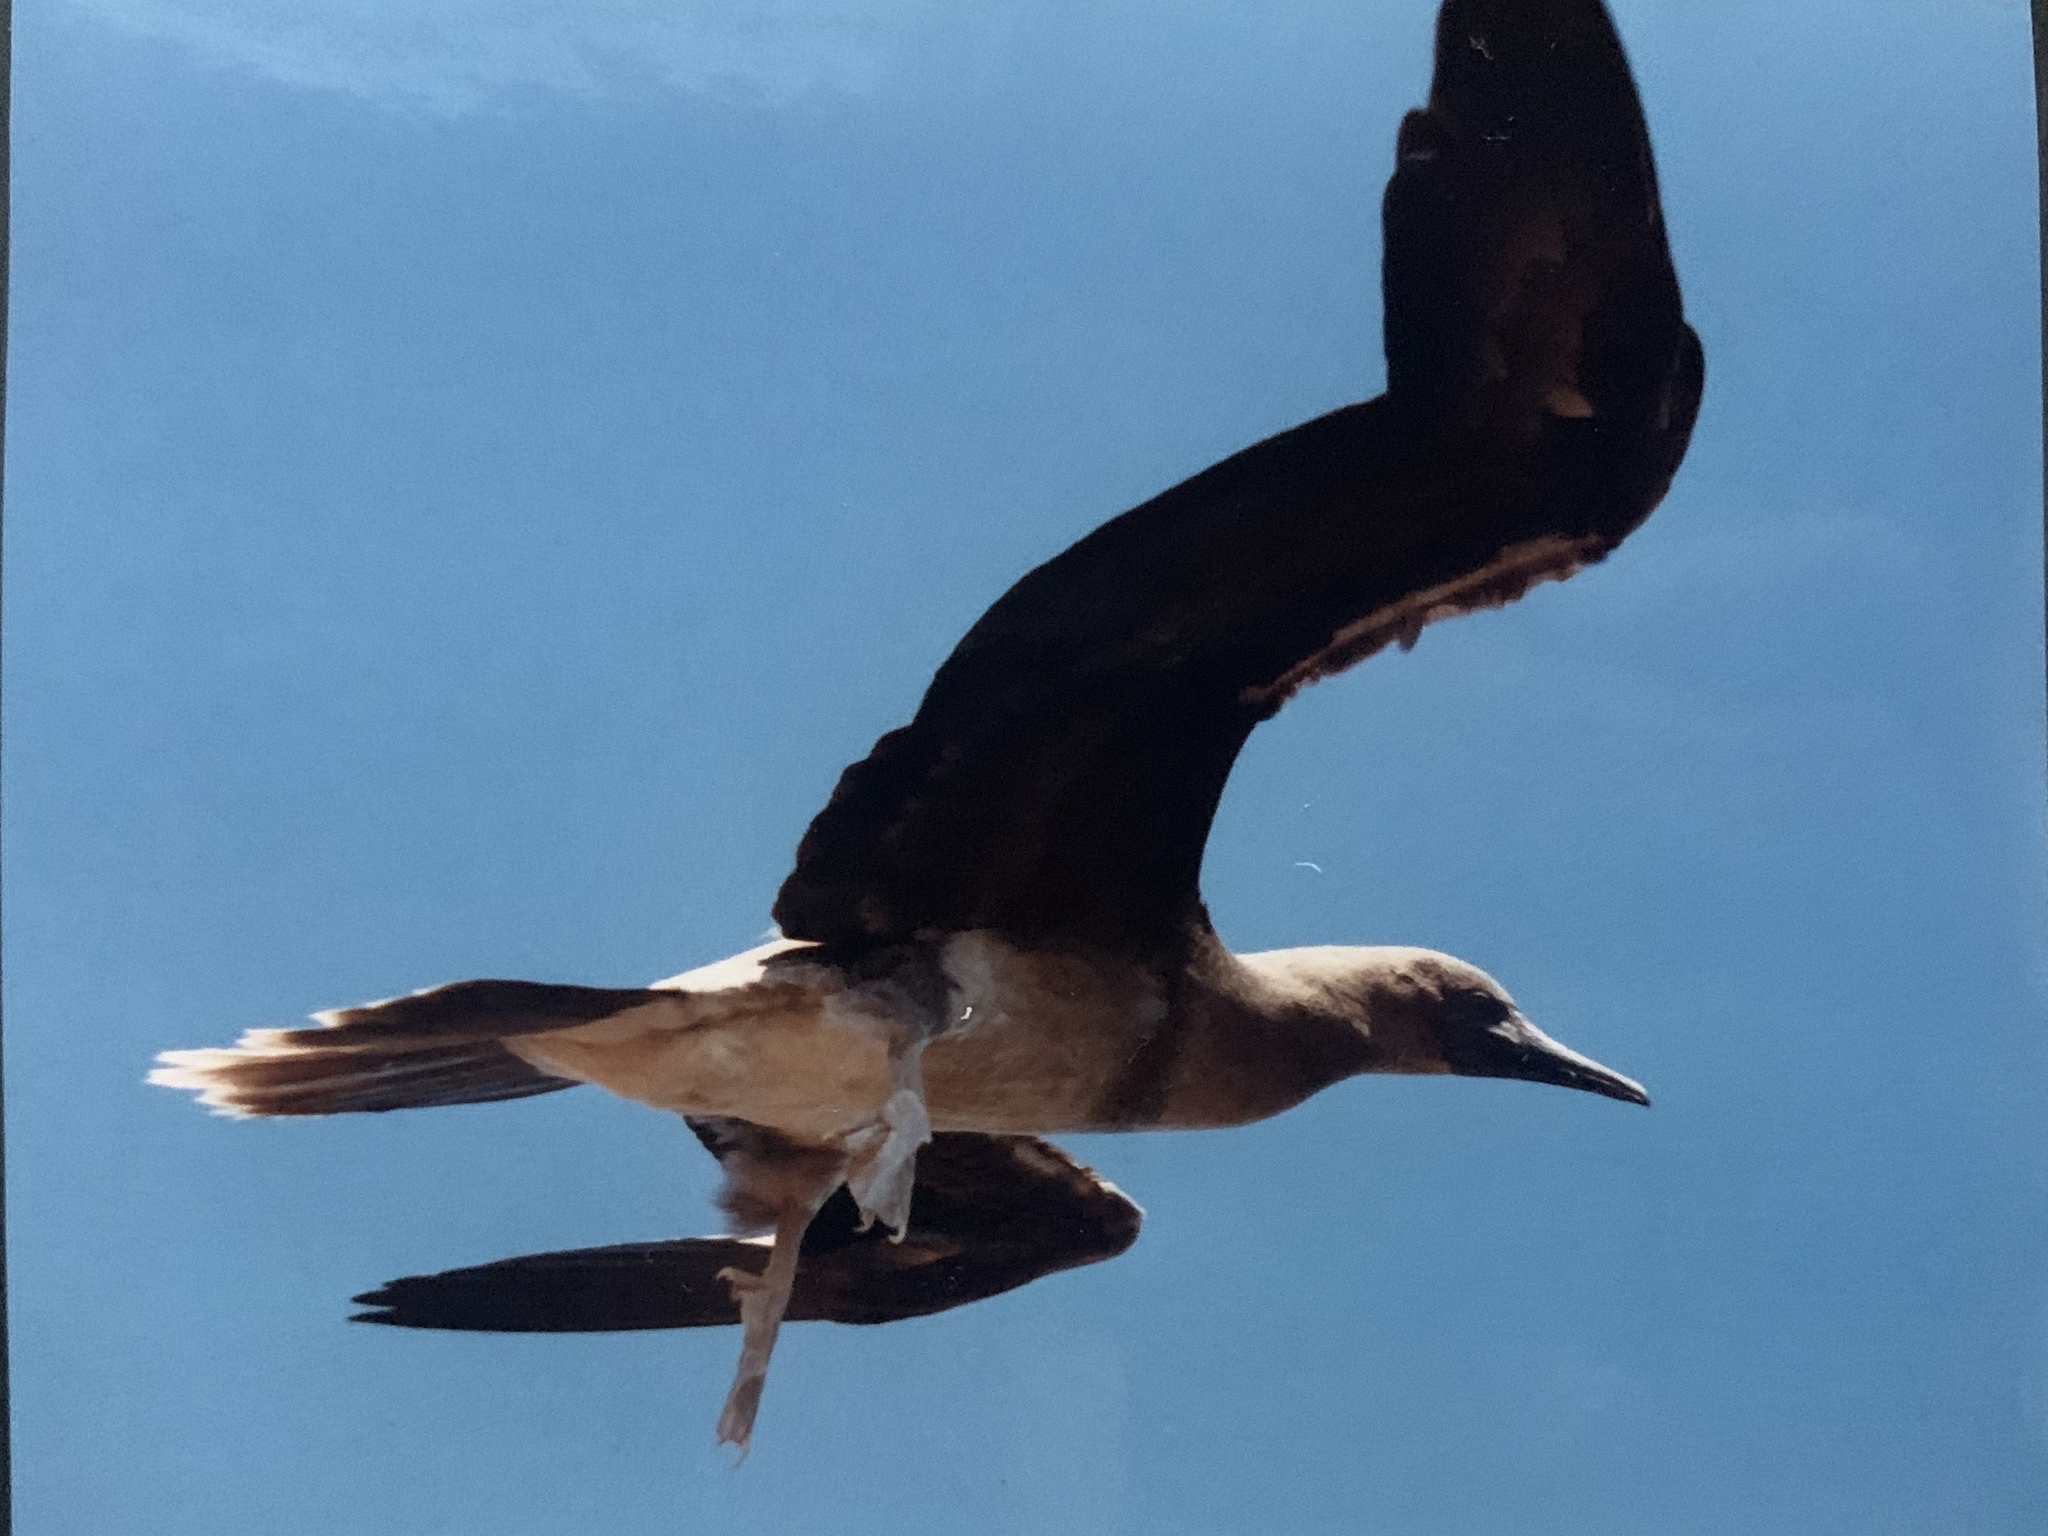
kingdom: Animalia
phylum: Chordata
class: Aves
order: Suliformes
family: Sulidae
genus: Sula
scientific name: Sula sula
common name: Red-footed booby
